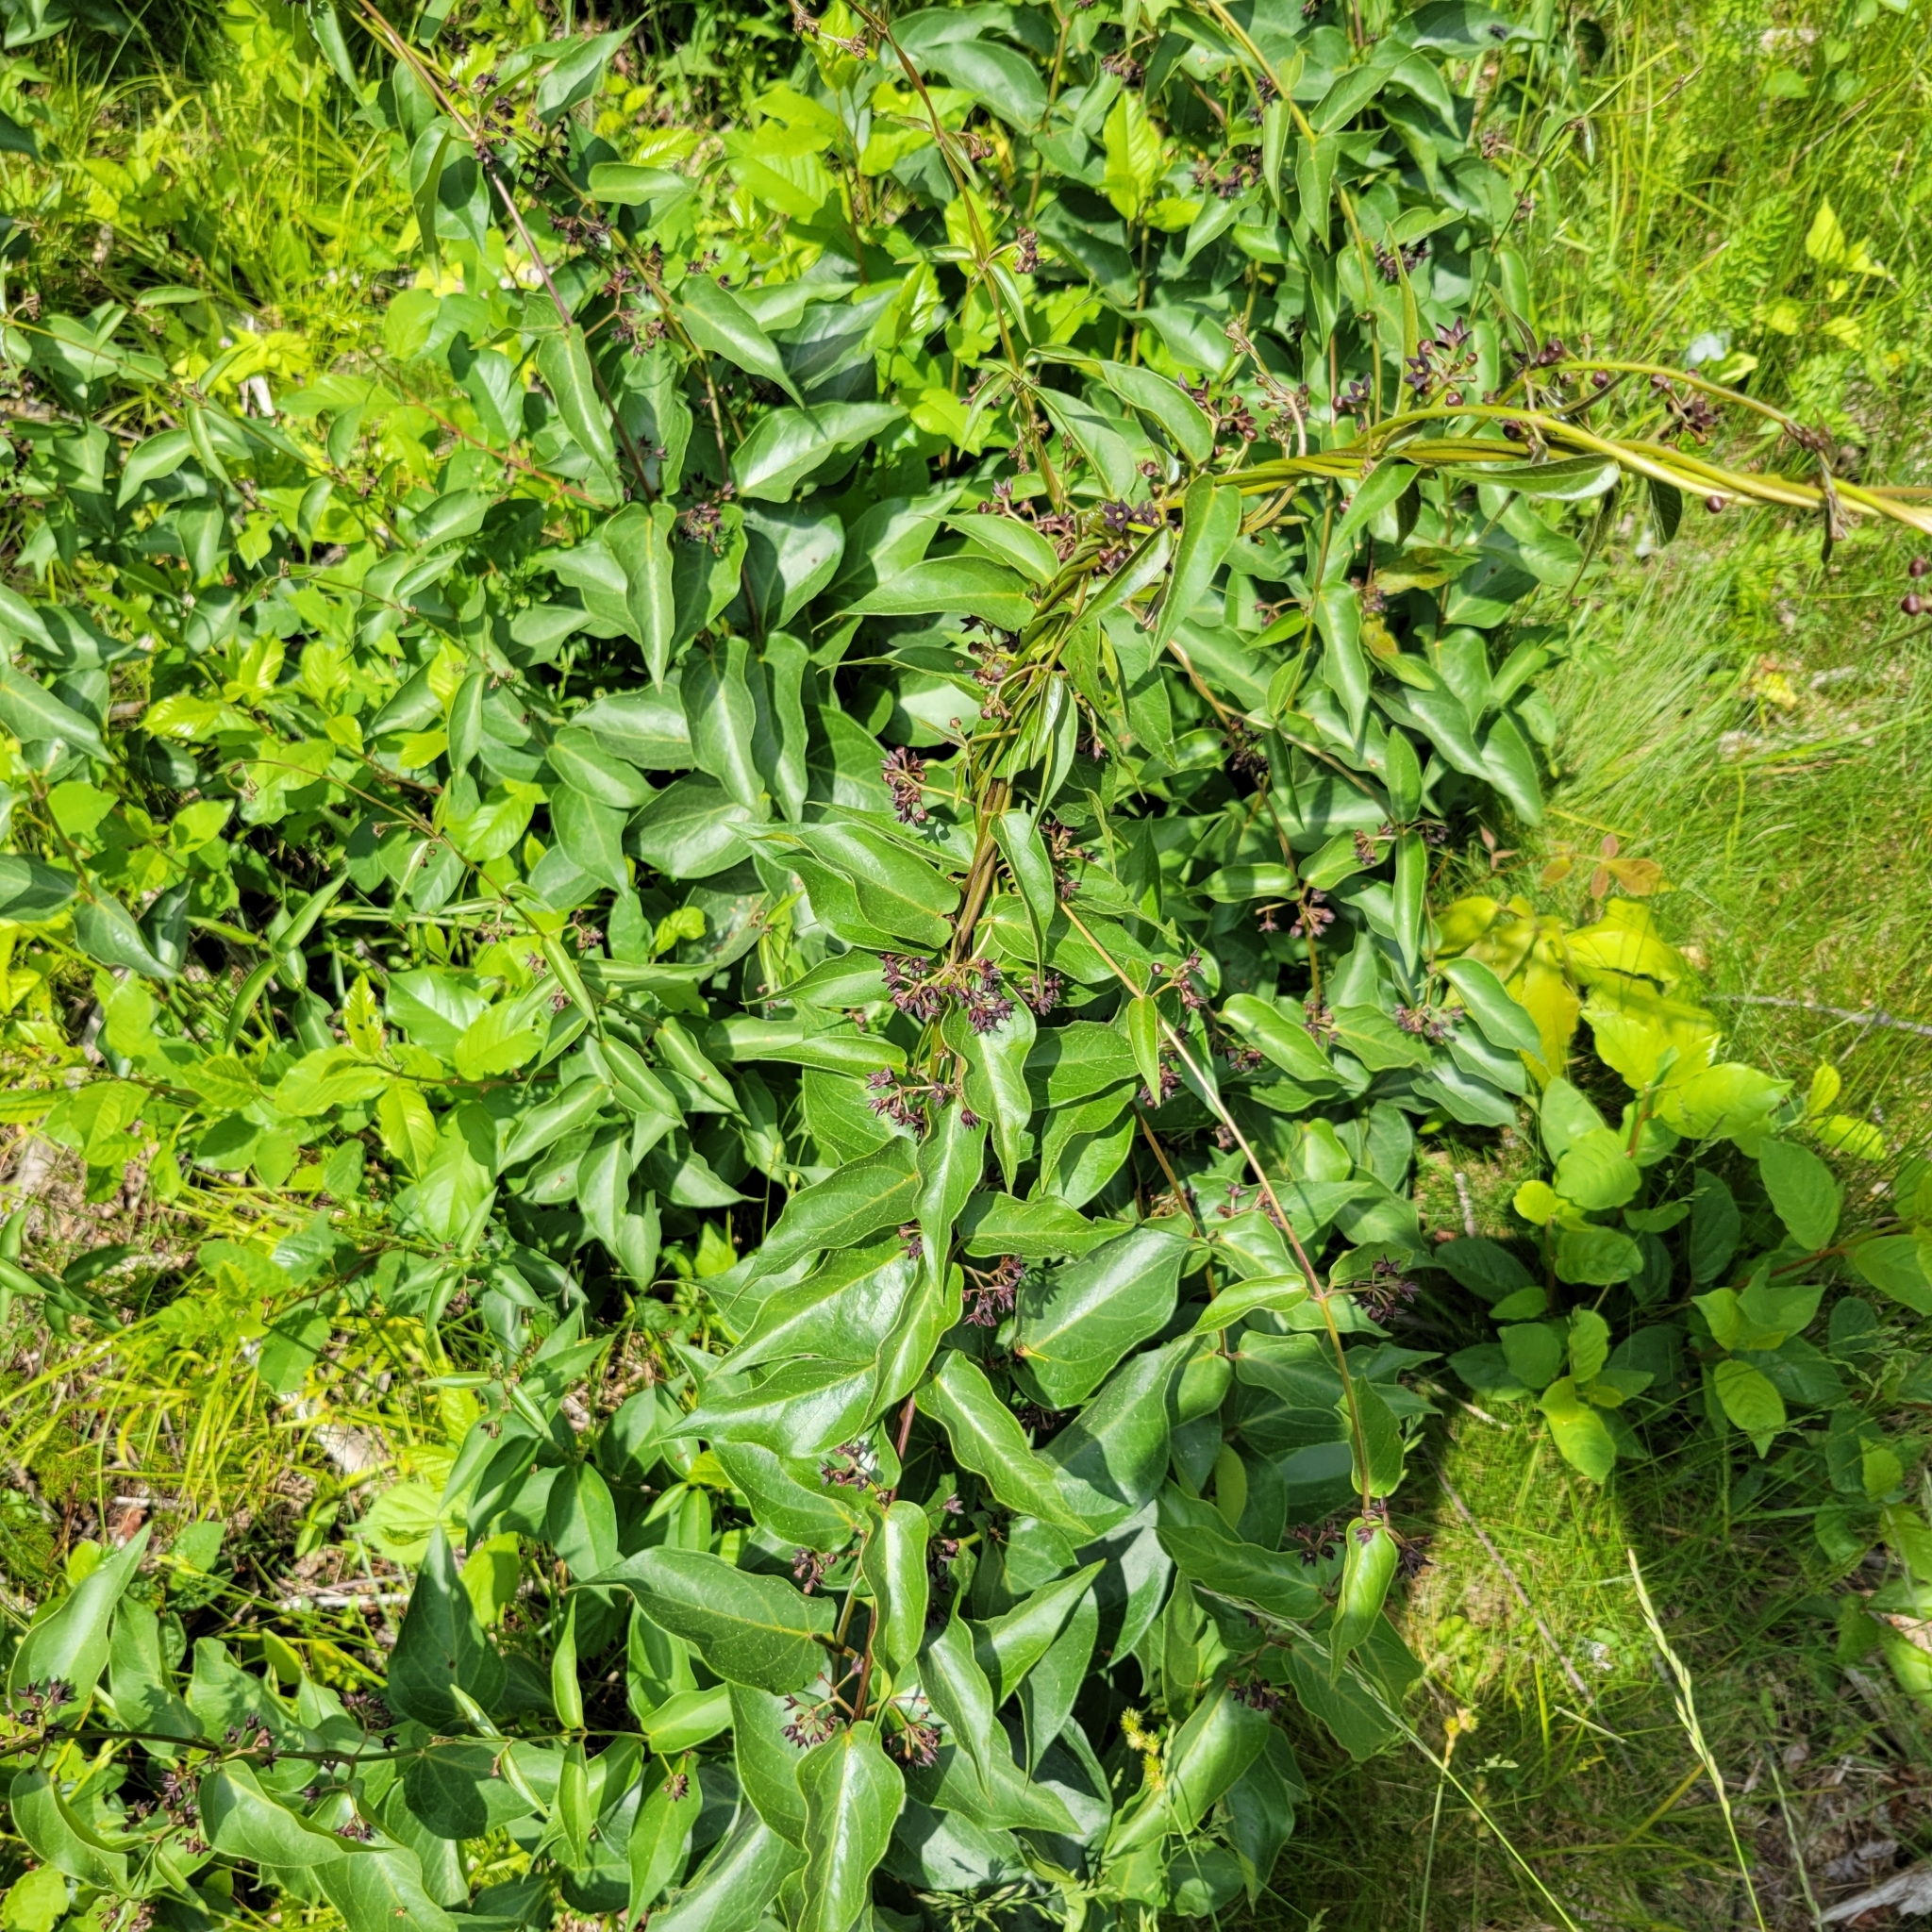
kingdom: Plantae
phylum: Tracheophyta
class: Magnoliopsida
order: Gentianales
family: Apocynaceae
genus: Vincetoxicum
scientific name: Vincetoxicum nigrum
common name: Black swallow-wort
